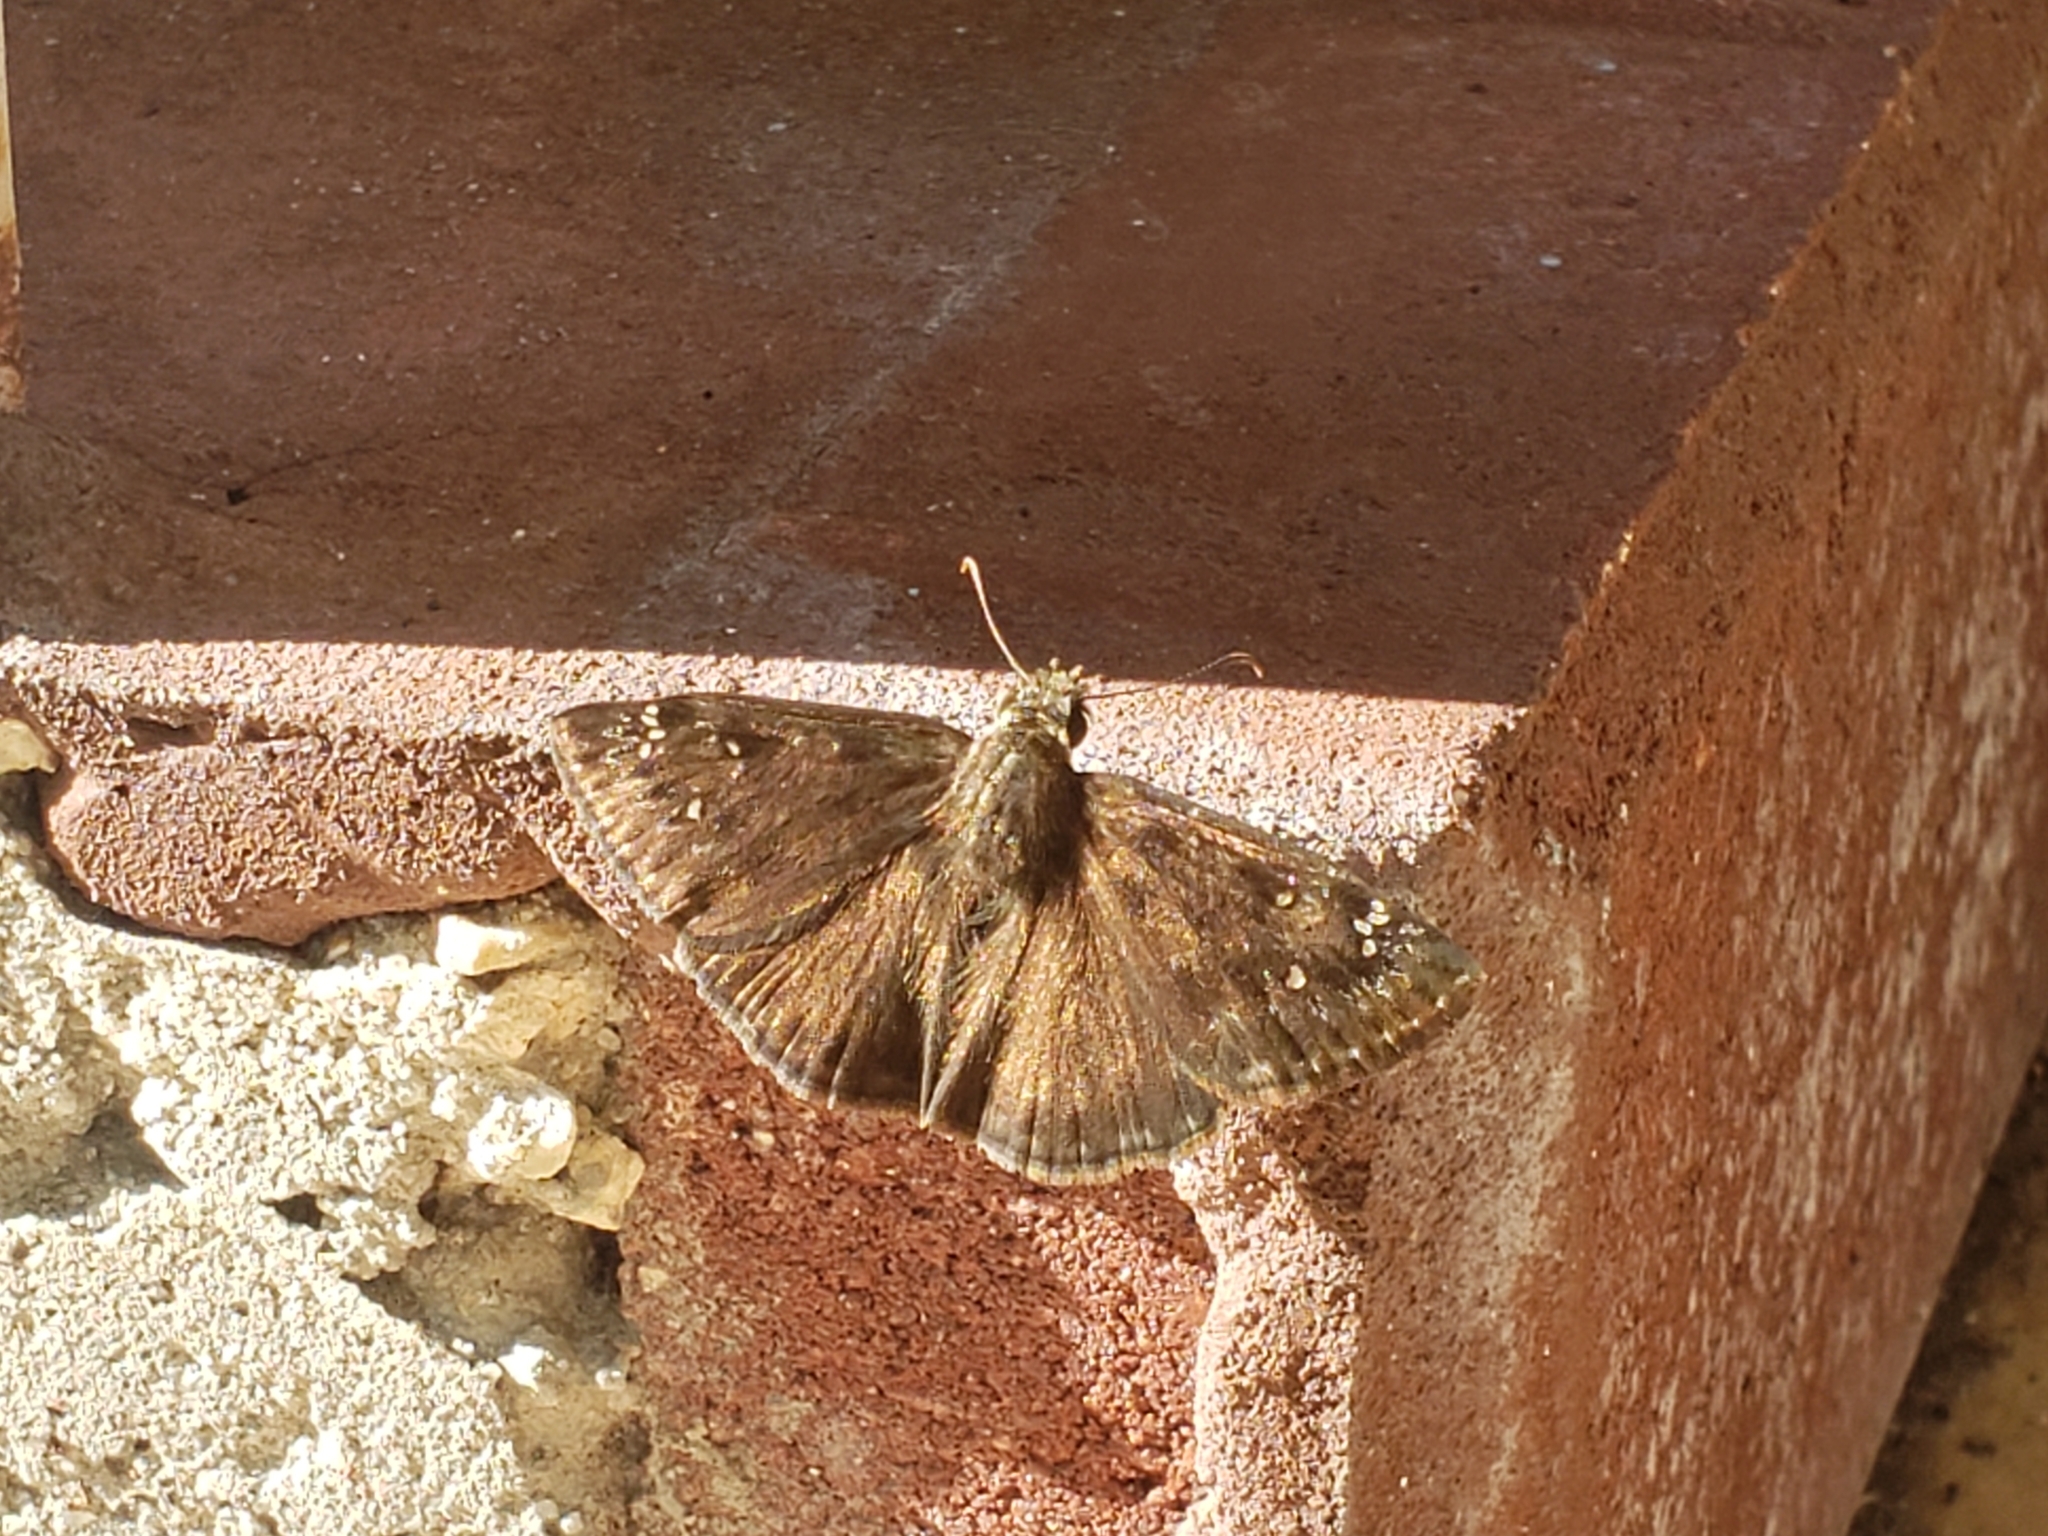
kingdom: Animalia
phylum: Arthropoda
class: Insecta
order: Lepidoptera
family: Hesperiidae
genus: Erynnis
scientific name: Erynnis horatius
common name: Horace's duskywing
